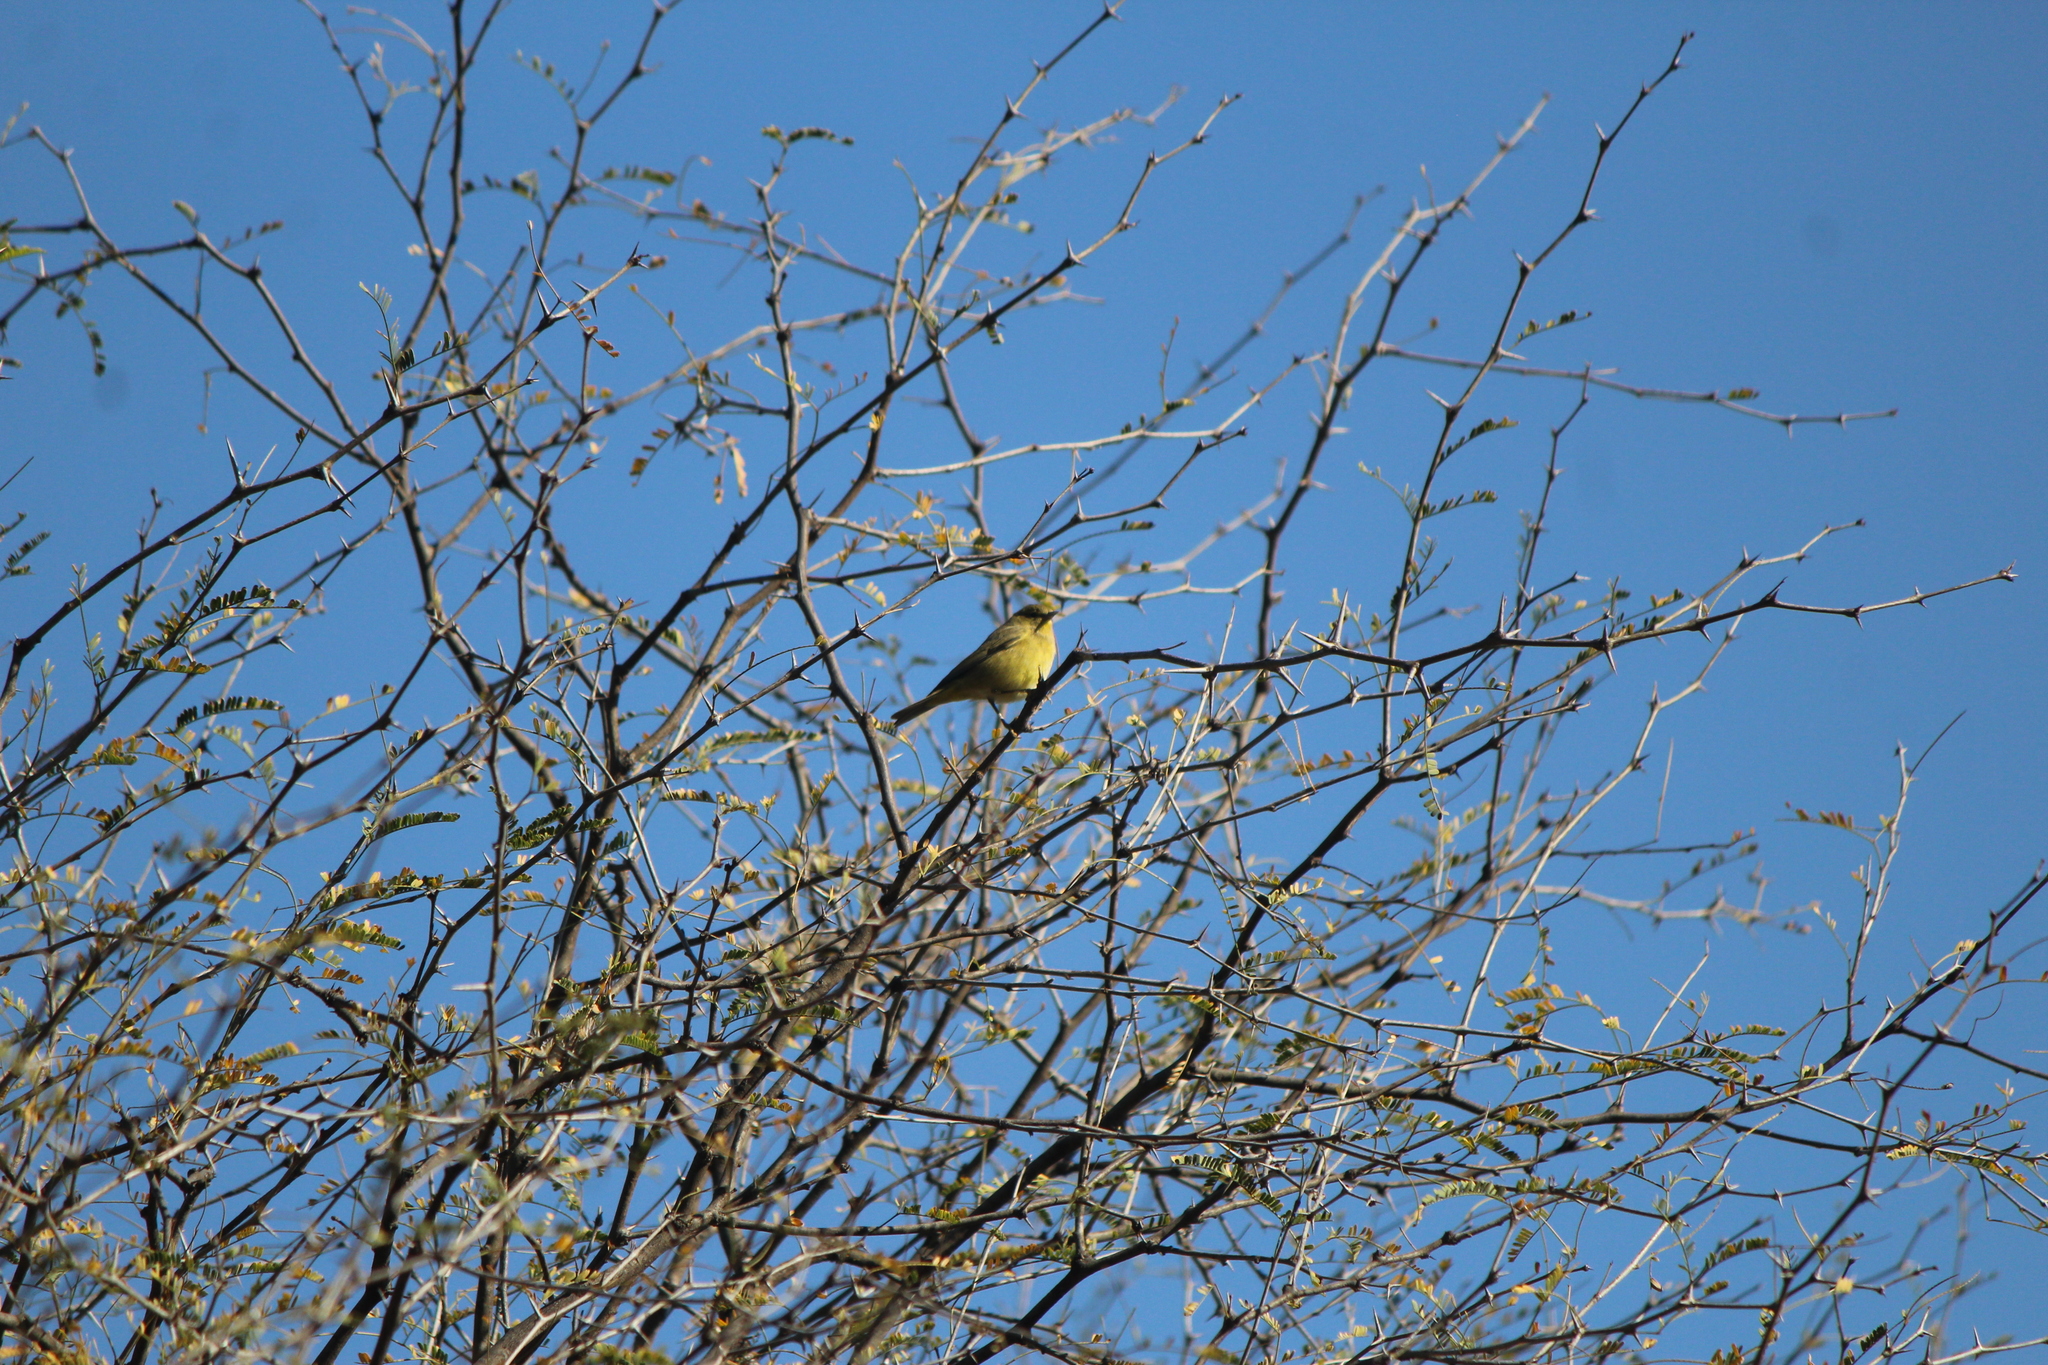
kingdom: Animalia
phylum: Chordata
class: Aves
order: Passeriformes
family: Parulidae
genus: Leiothlypis
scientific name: Leiothlypis celata
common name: Orange-crowned warbler
